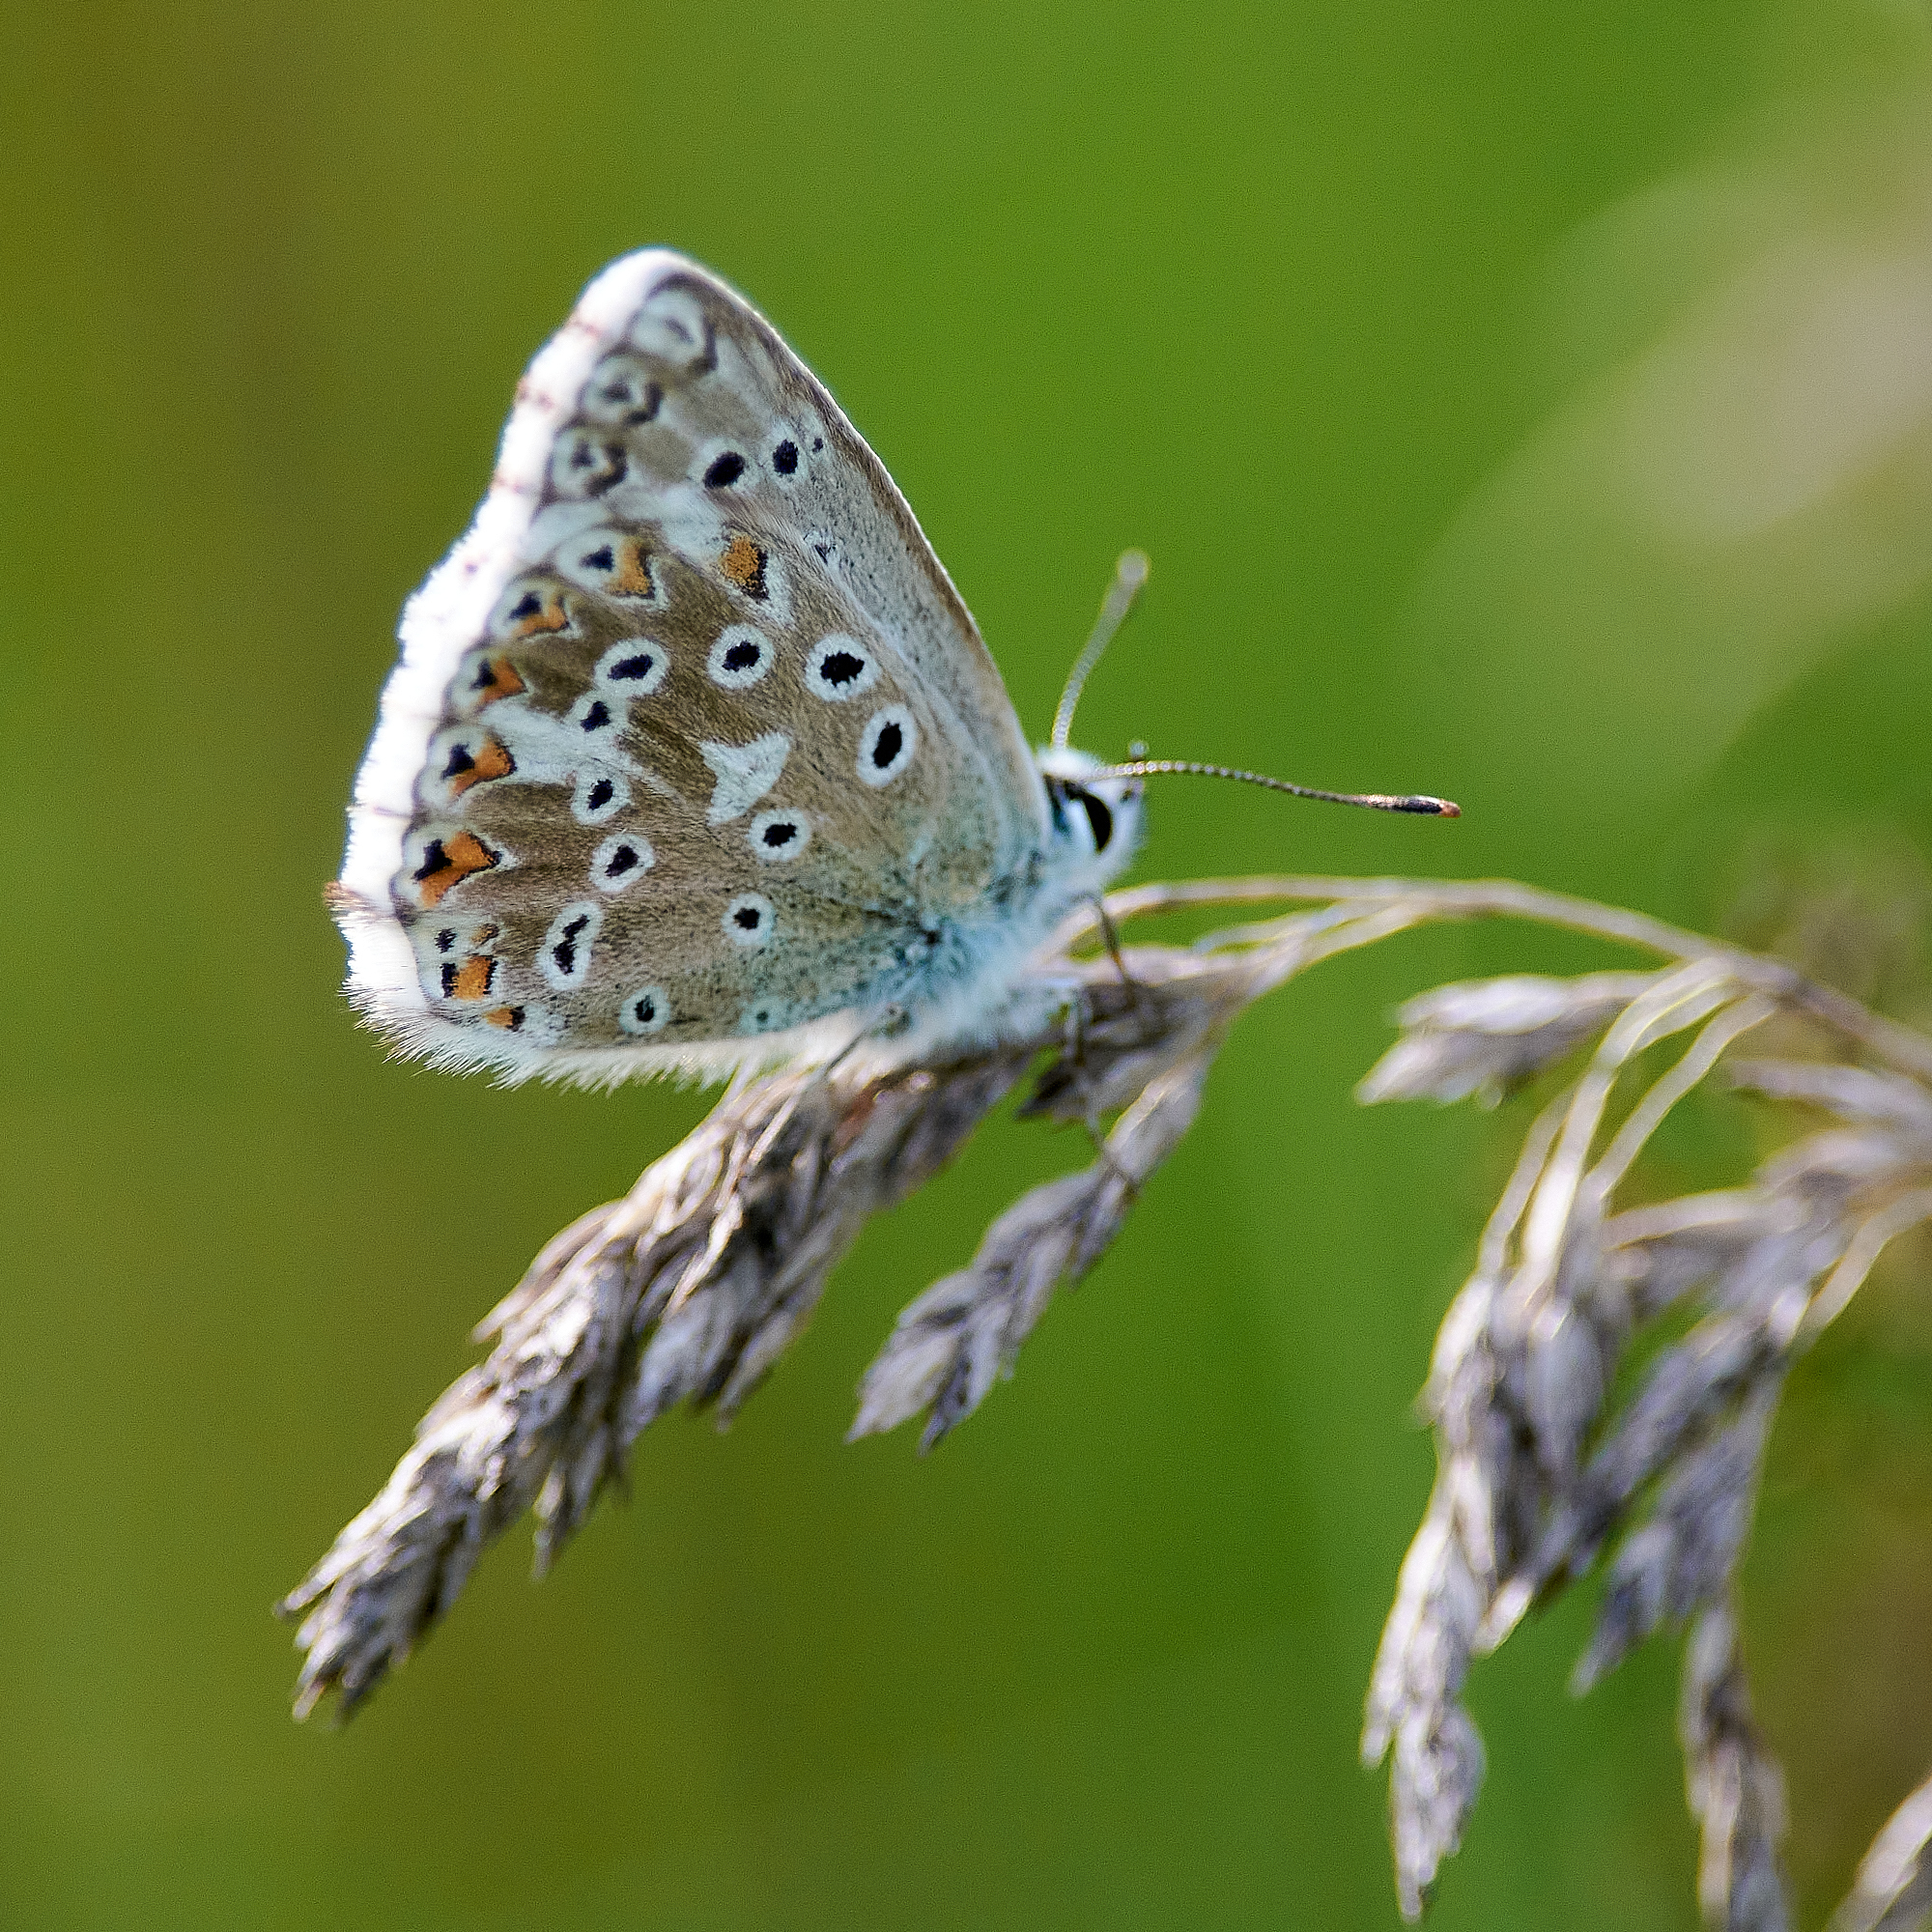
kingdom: Animalia
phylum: Arthropoda
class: Insecta
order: Lepidoptera
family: Lycaenidae
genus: Lysandra
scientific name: Lysandra coridon
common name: Chalkhill blue
